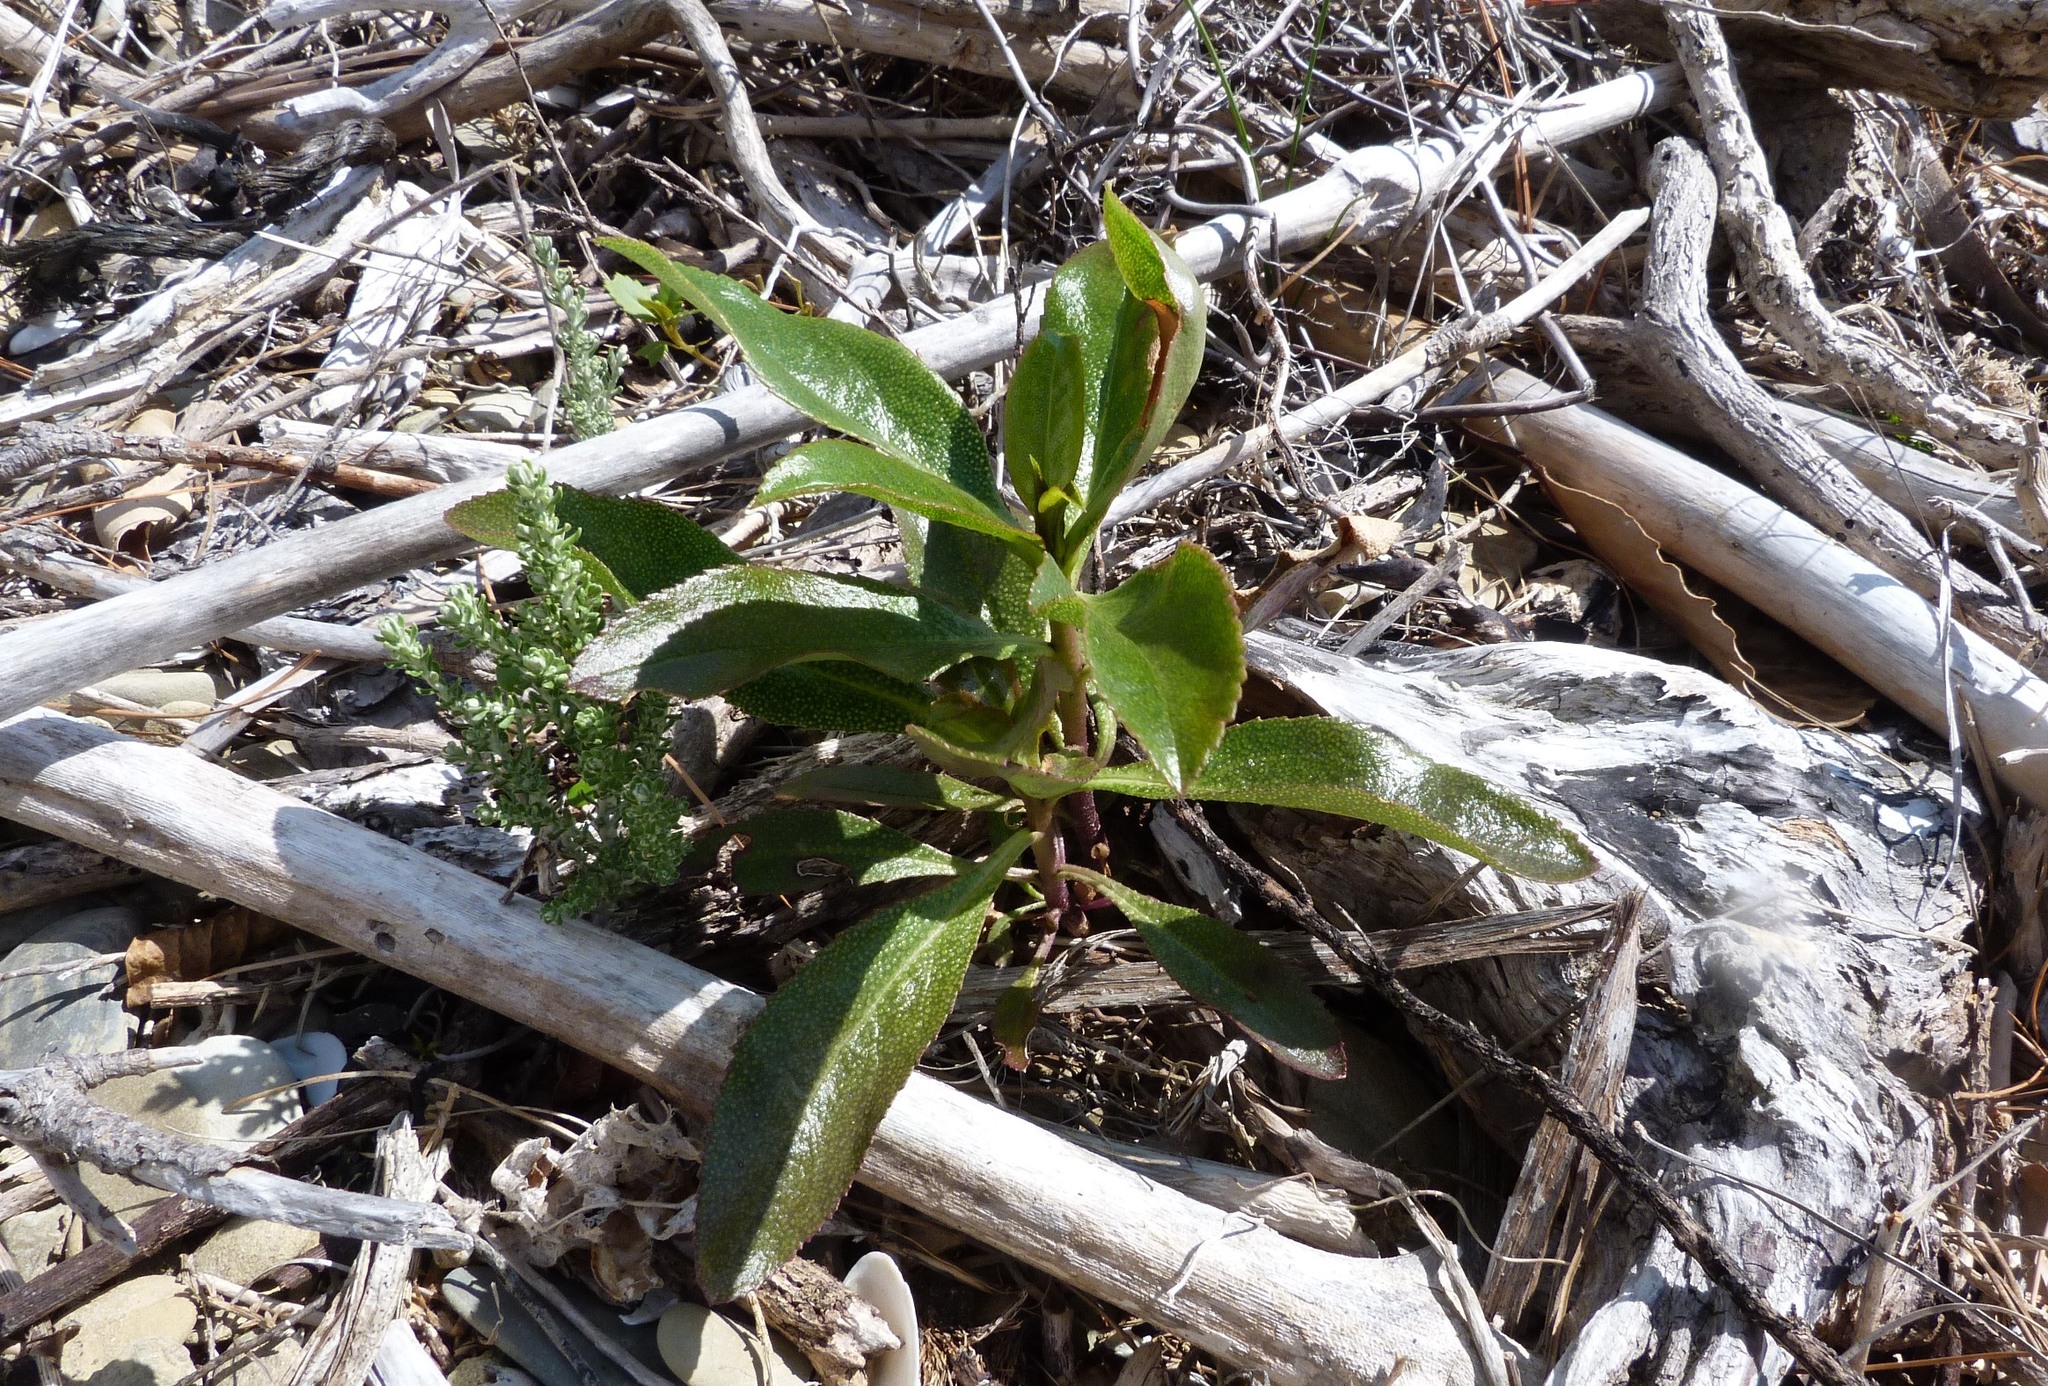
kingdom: Plantae
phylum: Tracheophyta
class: Magnoliopsida
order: Lamiales
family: Scrophulariaceae
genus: Myoporum
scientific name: Myoporum laetum
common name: Ngaio tree
